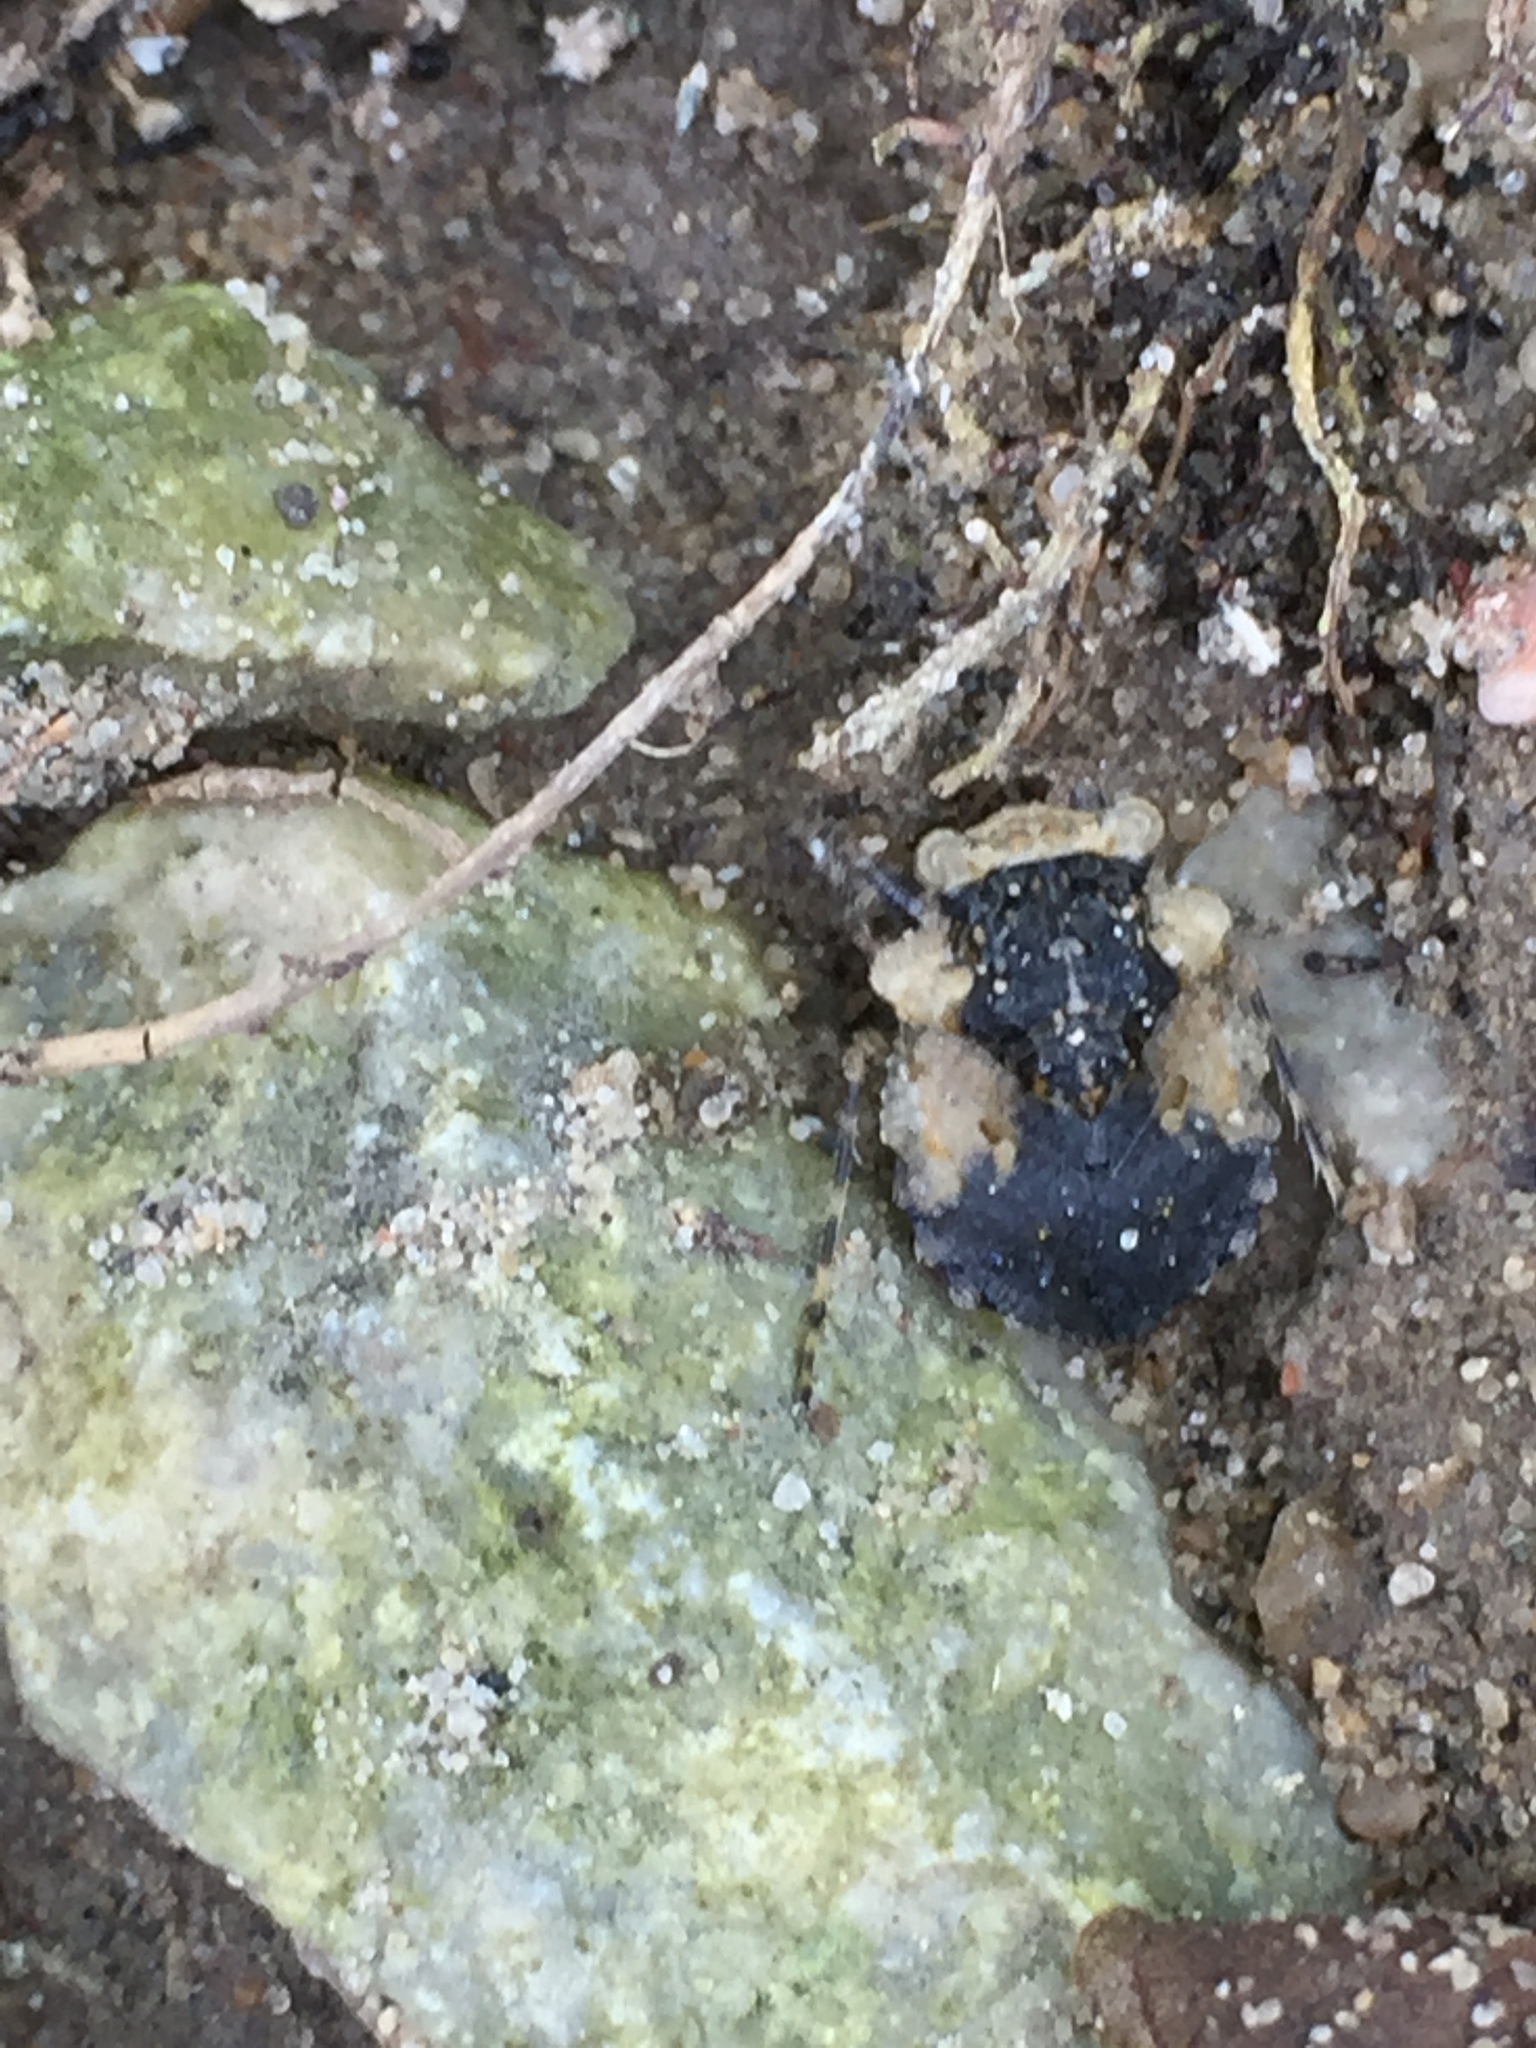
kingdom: Animalia
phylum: Arthropoda
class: Insecta
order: Hemiptera
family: Gelastocoridae
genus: Gelastocoris
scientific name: Gelastocoris oculatus
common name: Toad bug
